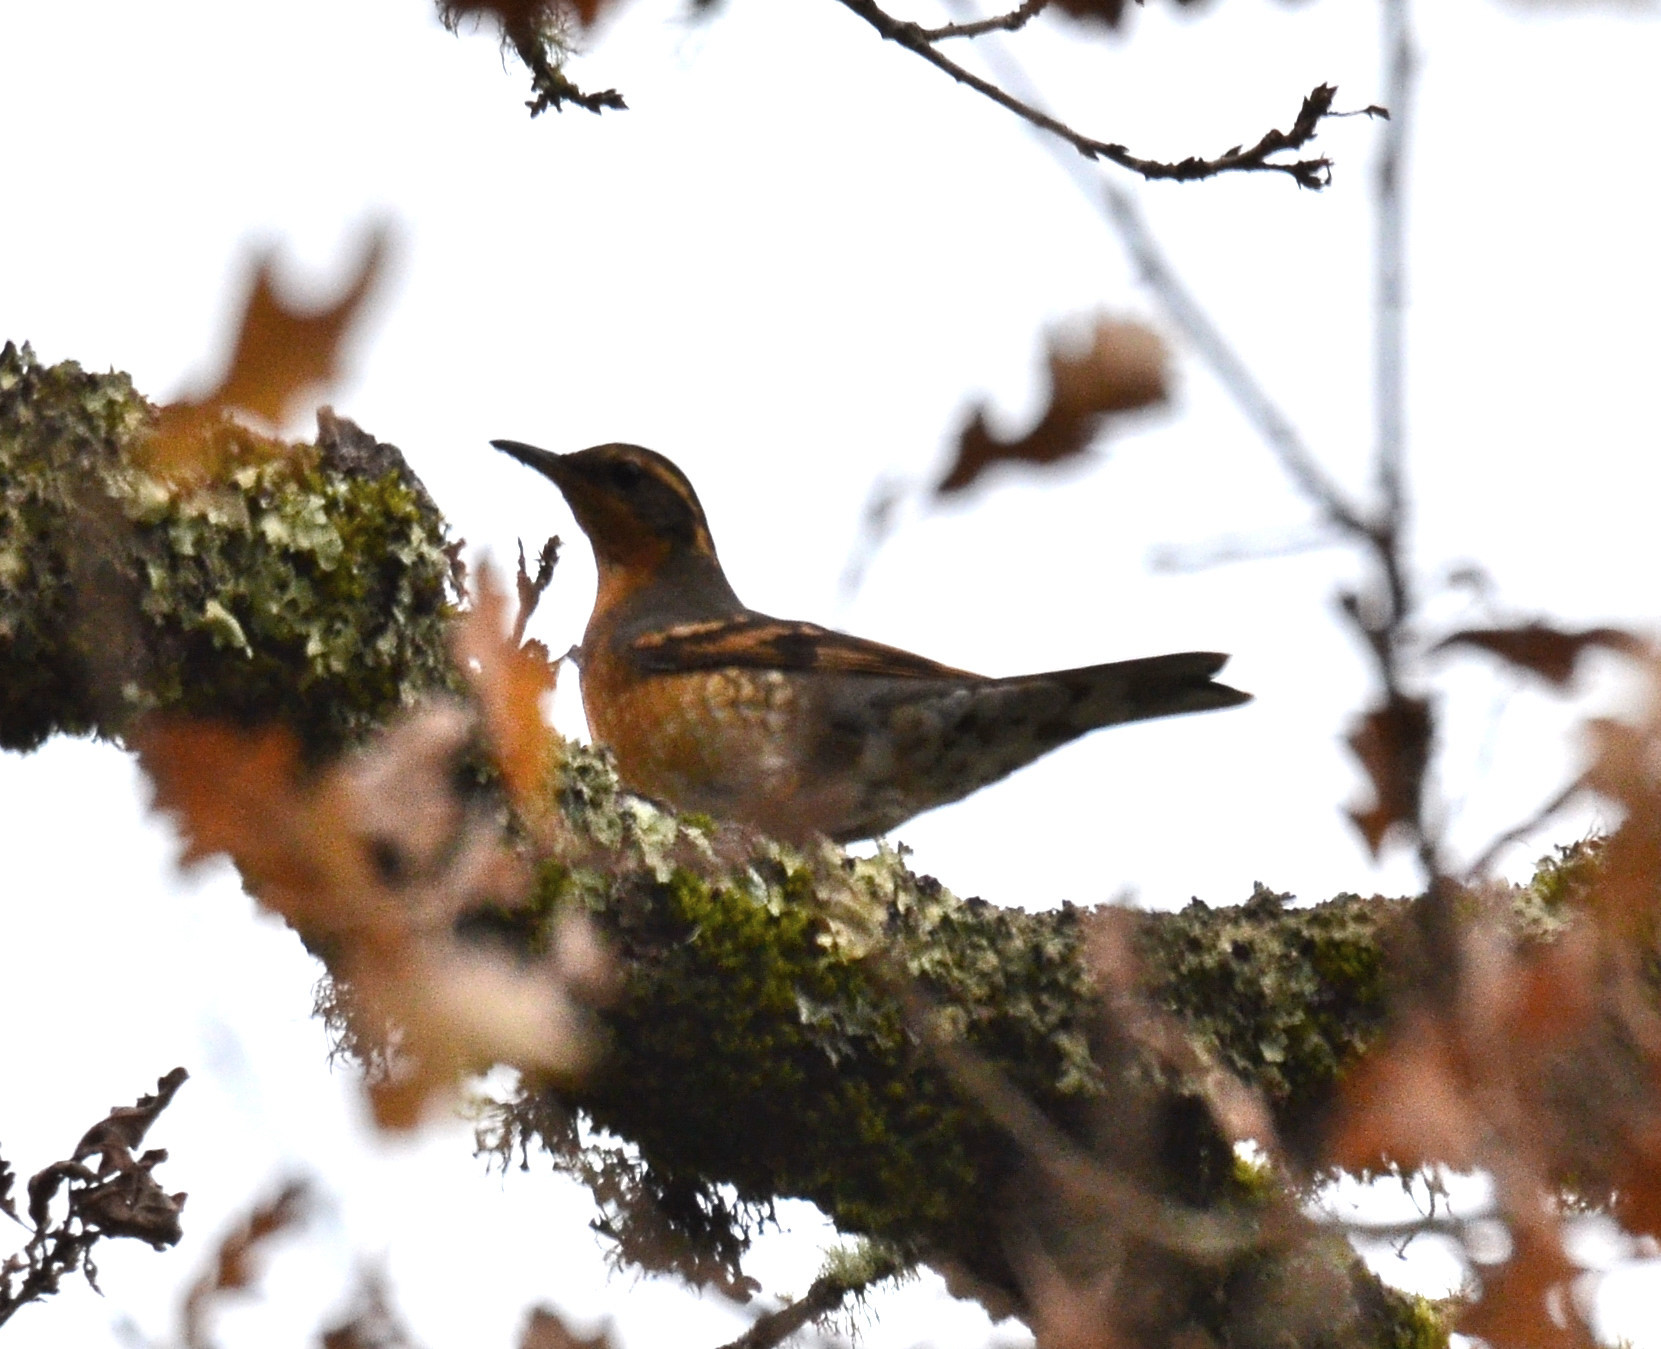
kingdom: Animalia
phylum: Chordata
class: Aves
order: Passeriformes
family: Turdidae
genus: Ixoreus
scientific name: Ixoreus naevius
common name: Varied thrush
